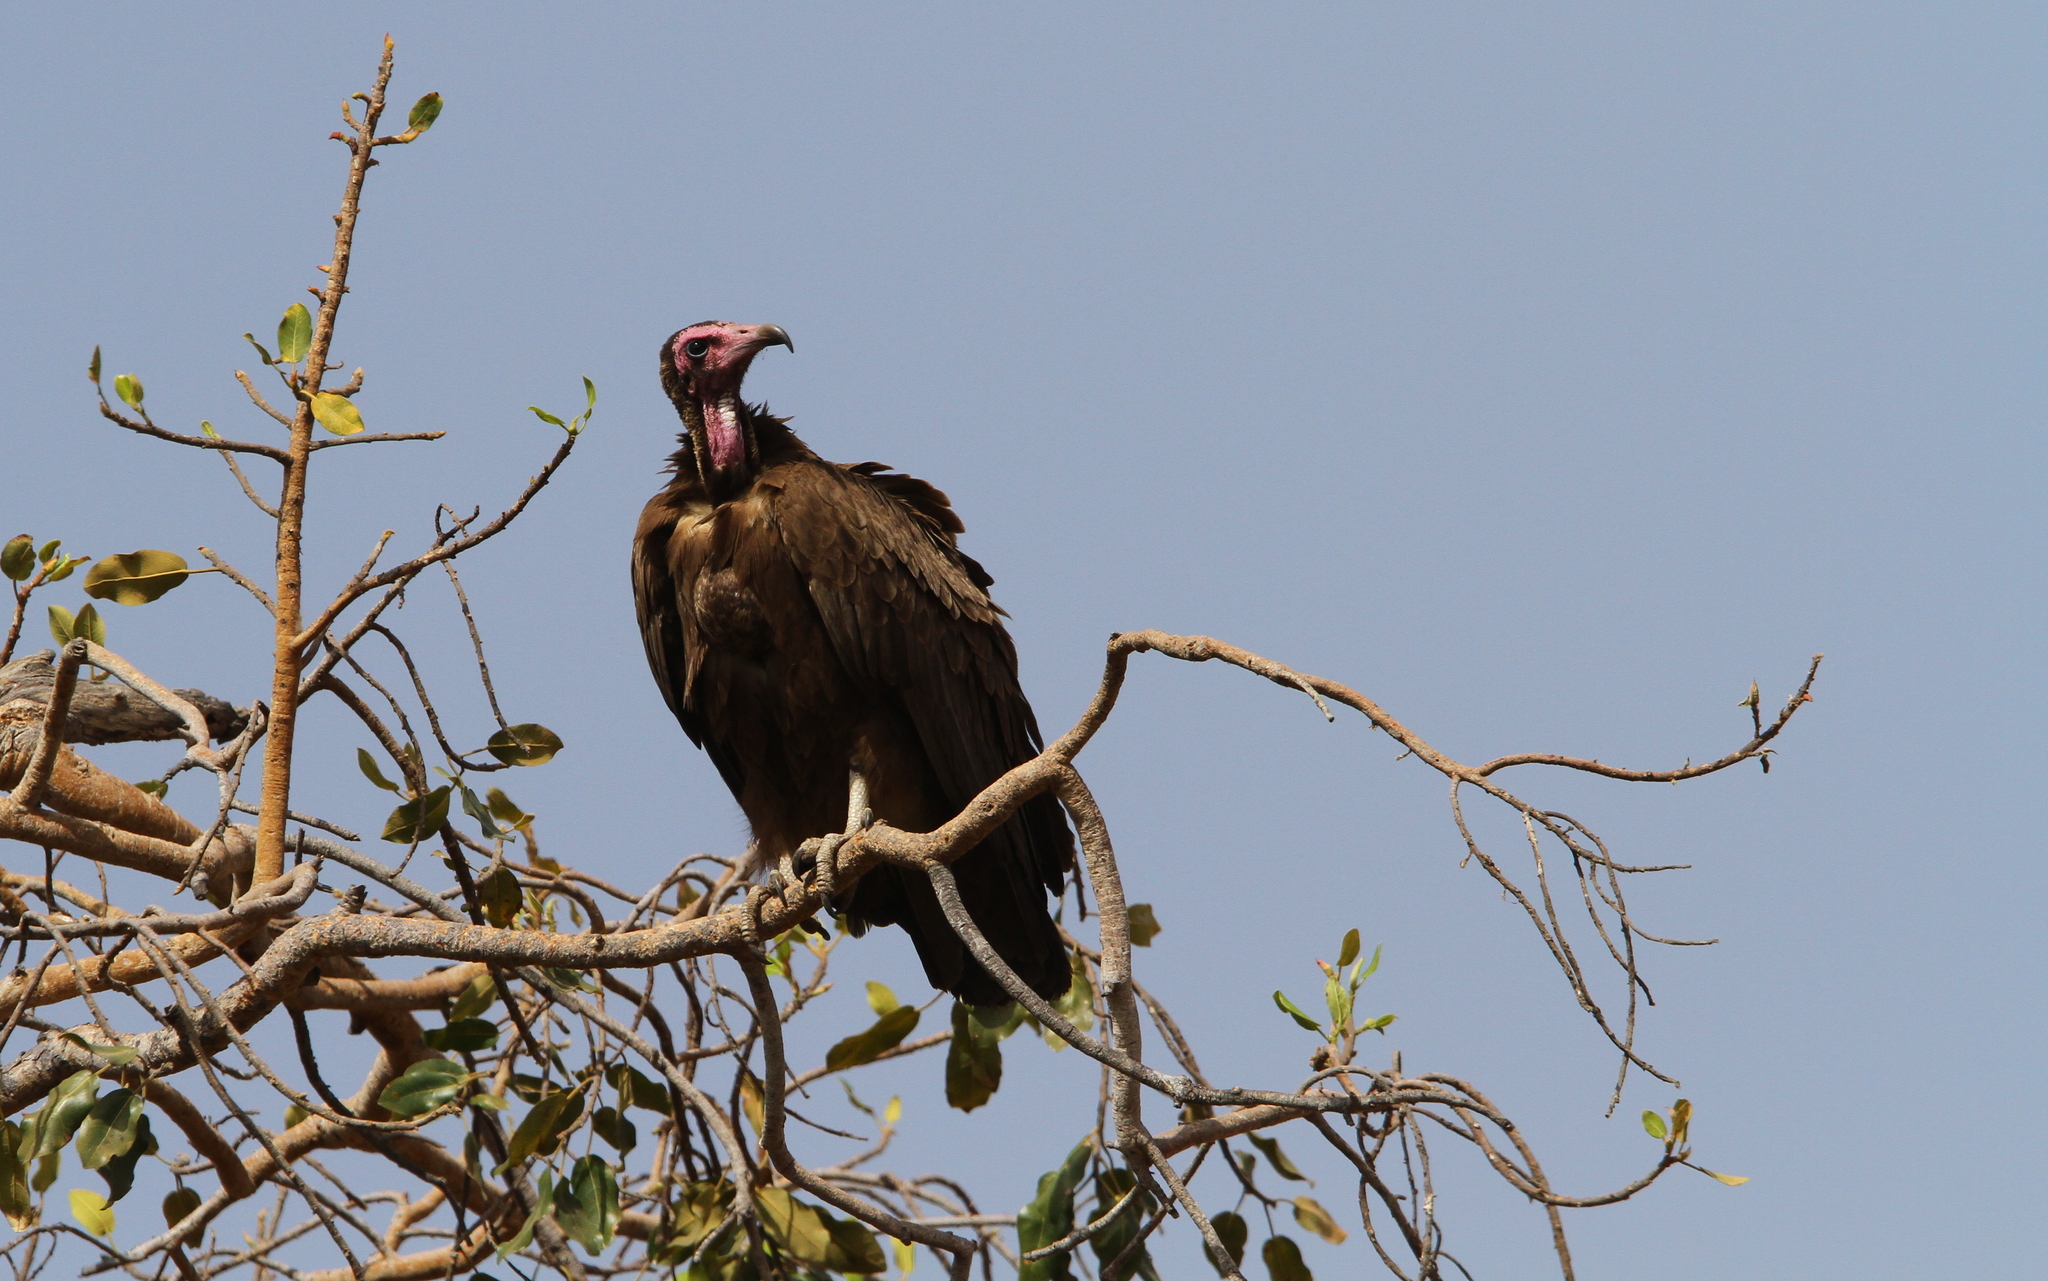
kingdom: Animalia
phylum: Chordata
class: Aves
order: Accipitriformes
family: Accipitridae
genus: Necrosyrtes
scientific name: Necrosyrtes monachus
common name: Hooded vulture
